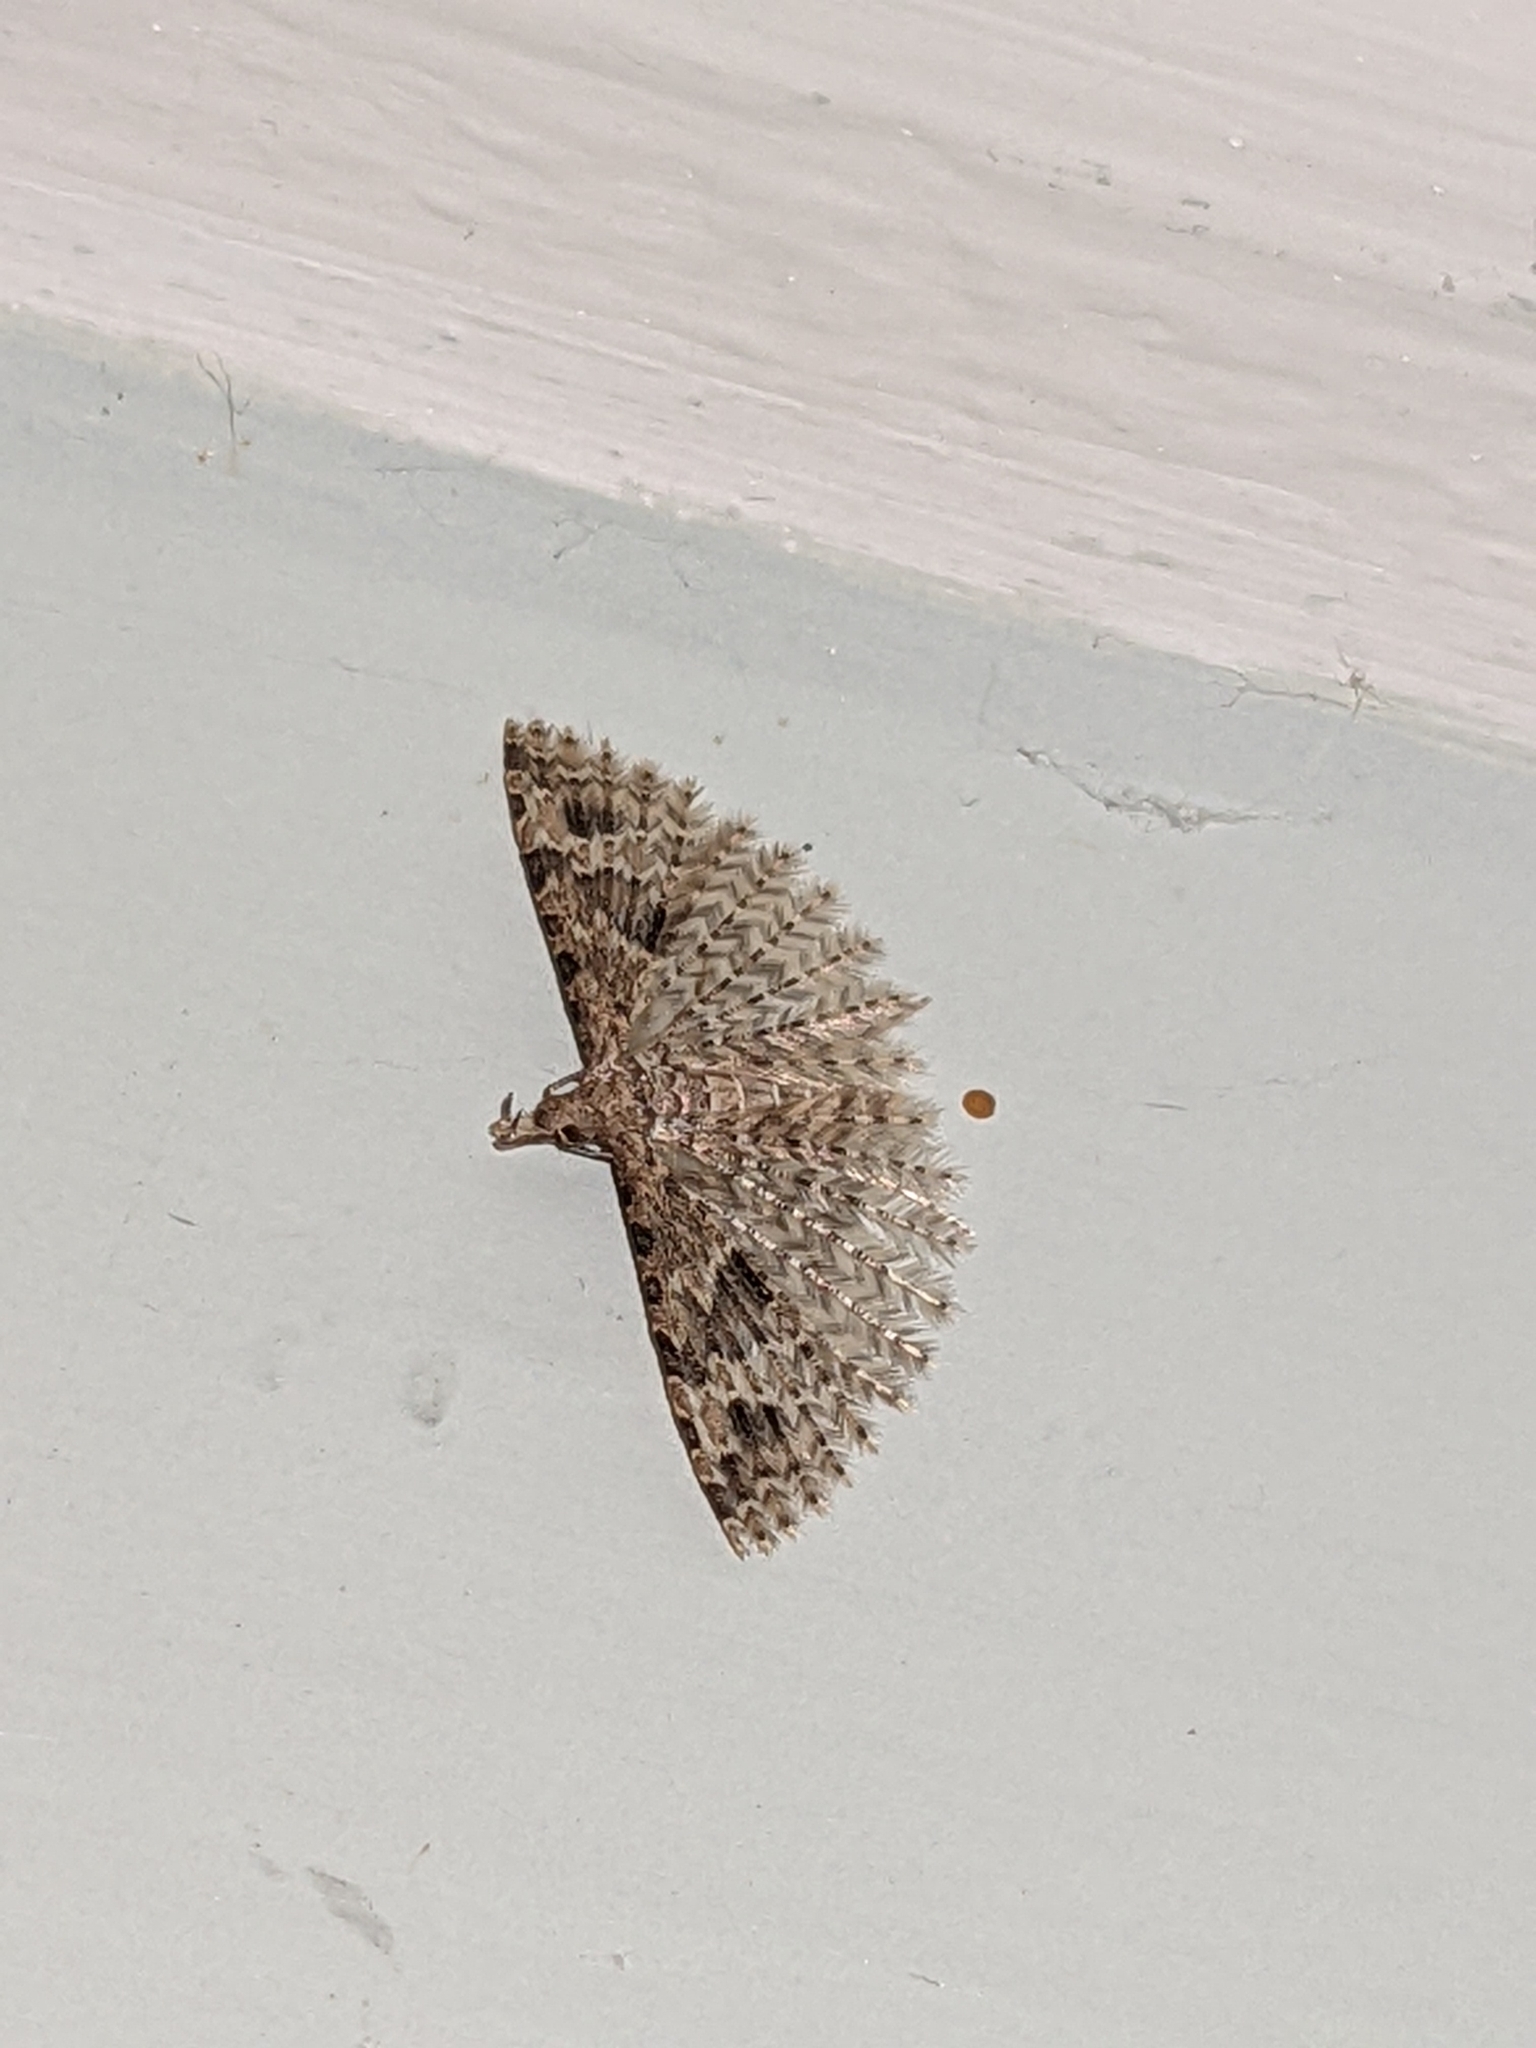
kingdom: Animalia
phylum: Arthropoda
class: Insecta
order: Lepidoptera
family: Alucitidae
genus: Alucita
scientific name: Alucita hexadactyla
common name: Twenty-plume moth
